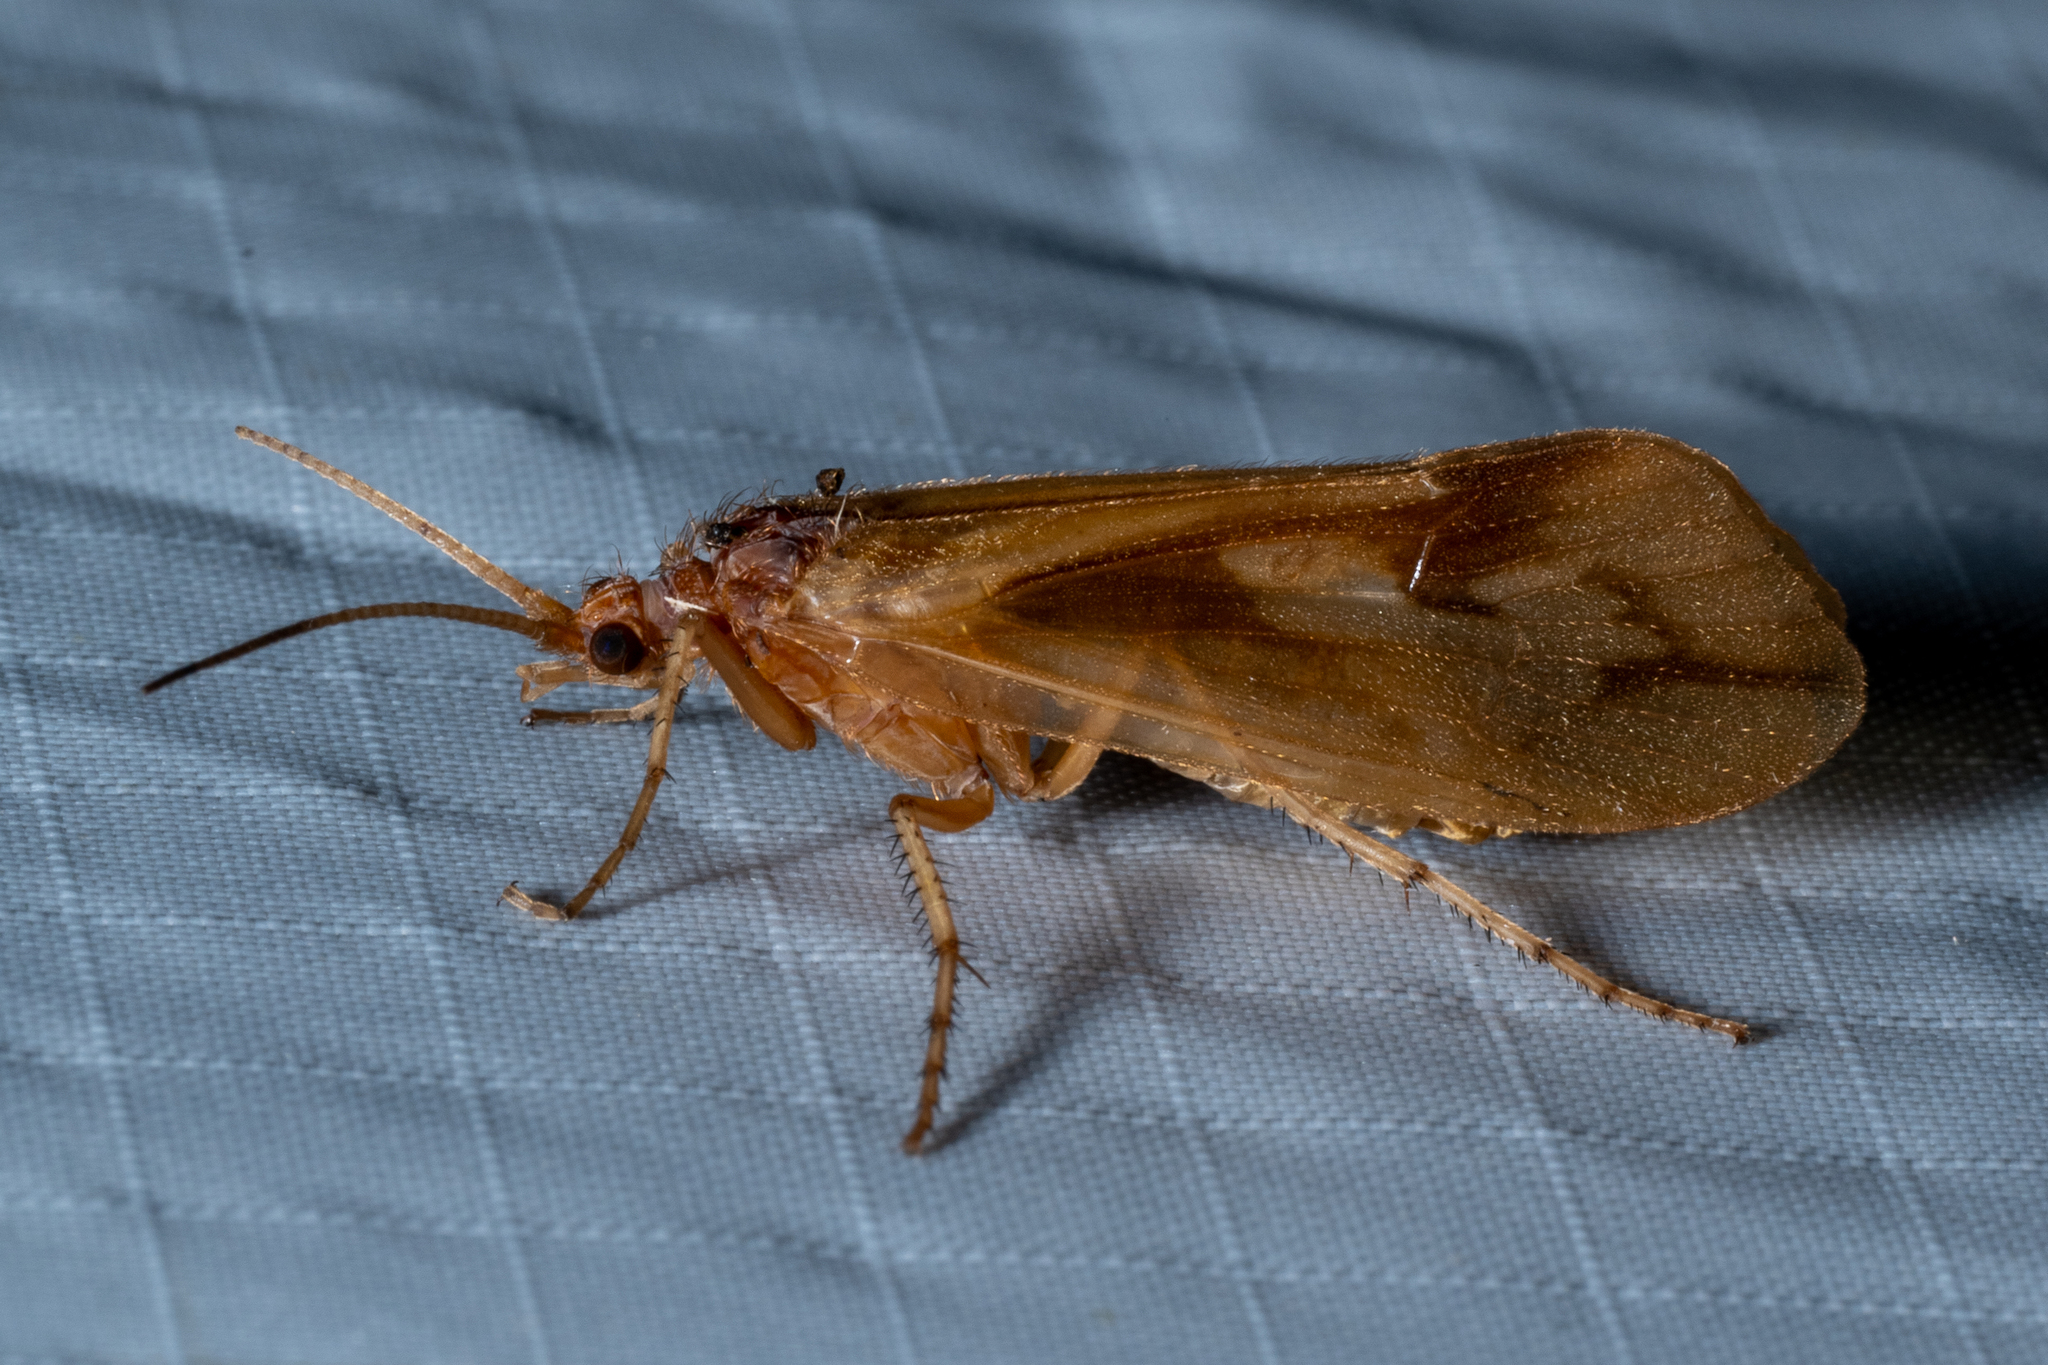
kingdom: Animalia
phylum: Arthropoda
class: Insecta
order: Trichoptera
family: Limnephilidae
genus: Platycentropus
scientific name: Platycentropus radiatus
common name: Chocolate-and-cream sedge
